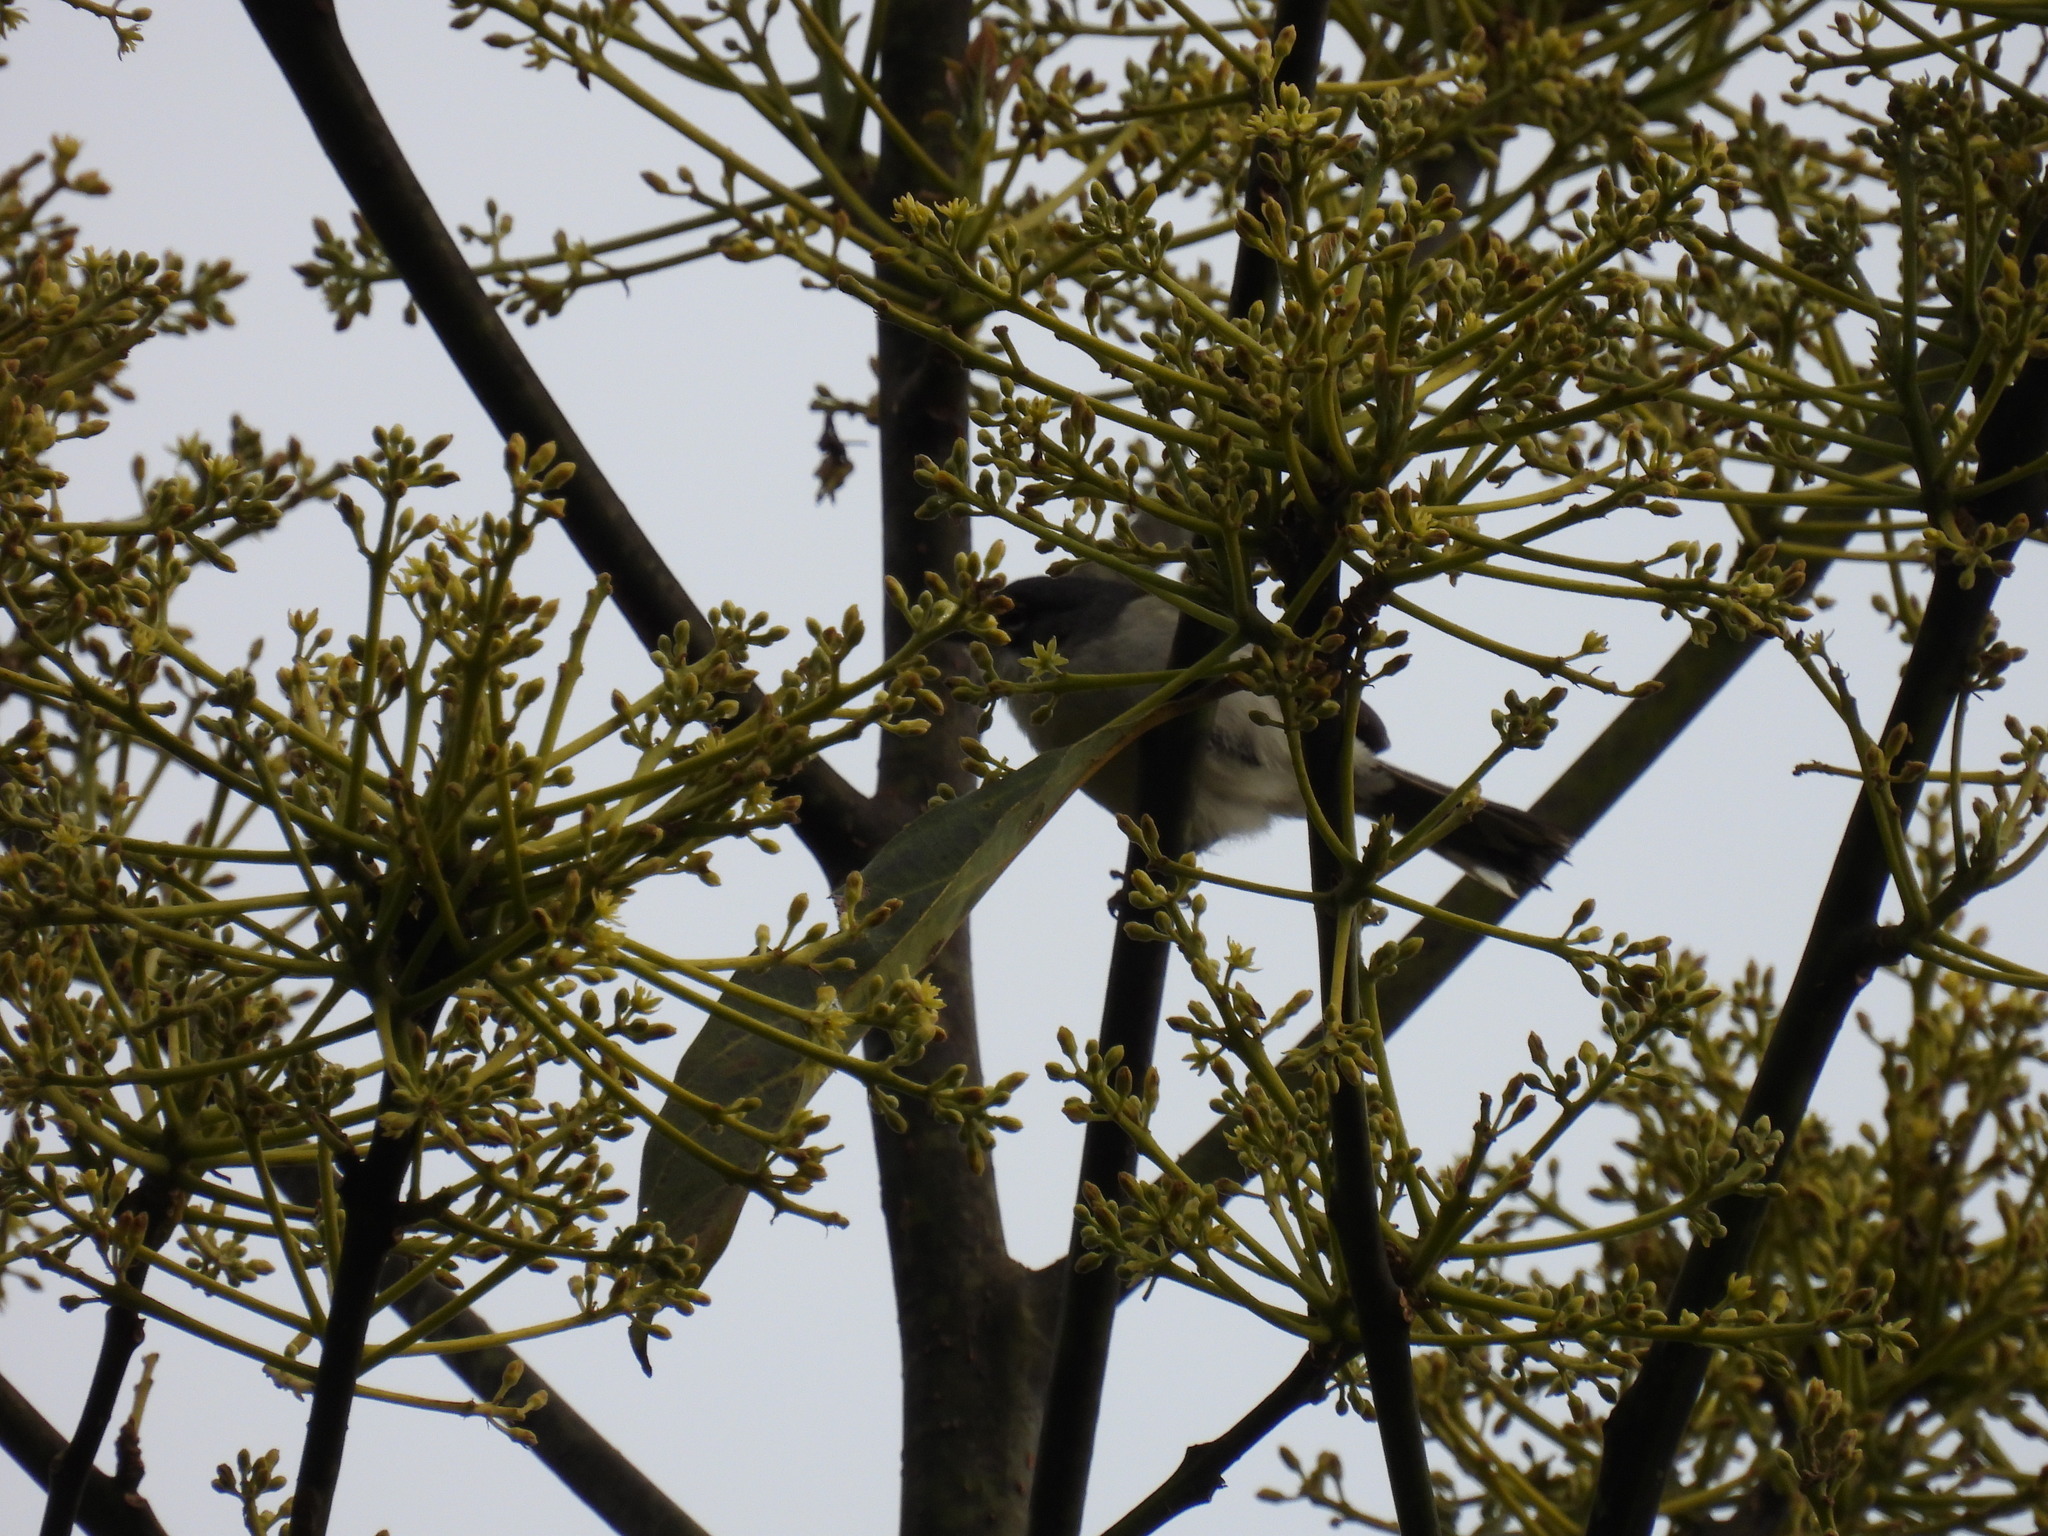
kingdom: Animalia
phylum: Chordata
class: Aves
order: Passeriformes
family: Parulidae
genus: Xenoligea
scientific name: Xenoligea montana
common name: White-winged warbler
